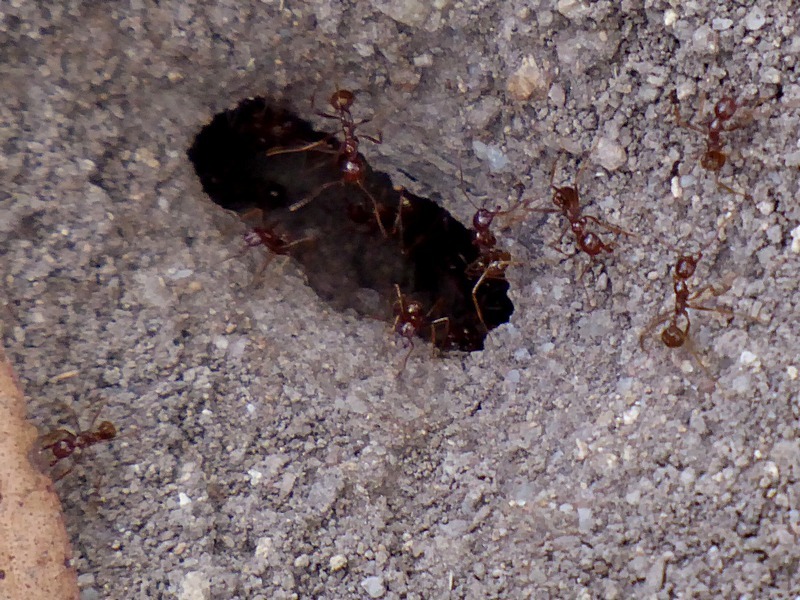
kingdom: Animalia
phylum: Arthropoda
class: Insecta
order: Hymenoptera
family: Formicidae
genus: Aphaenogaster
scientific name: Aphaenogaster longiceps
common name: Funnel ant
